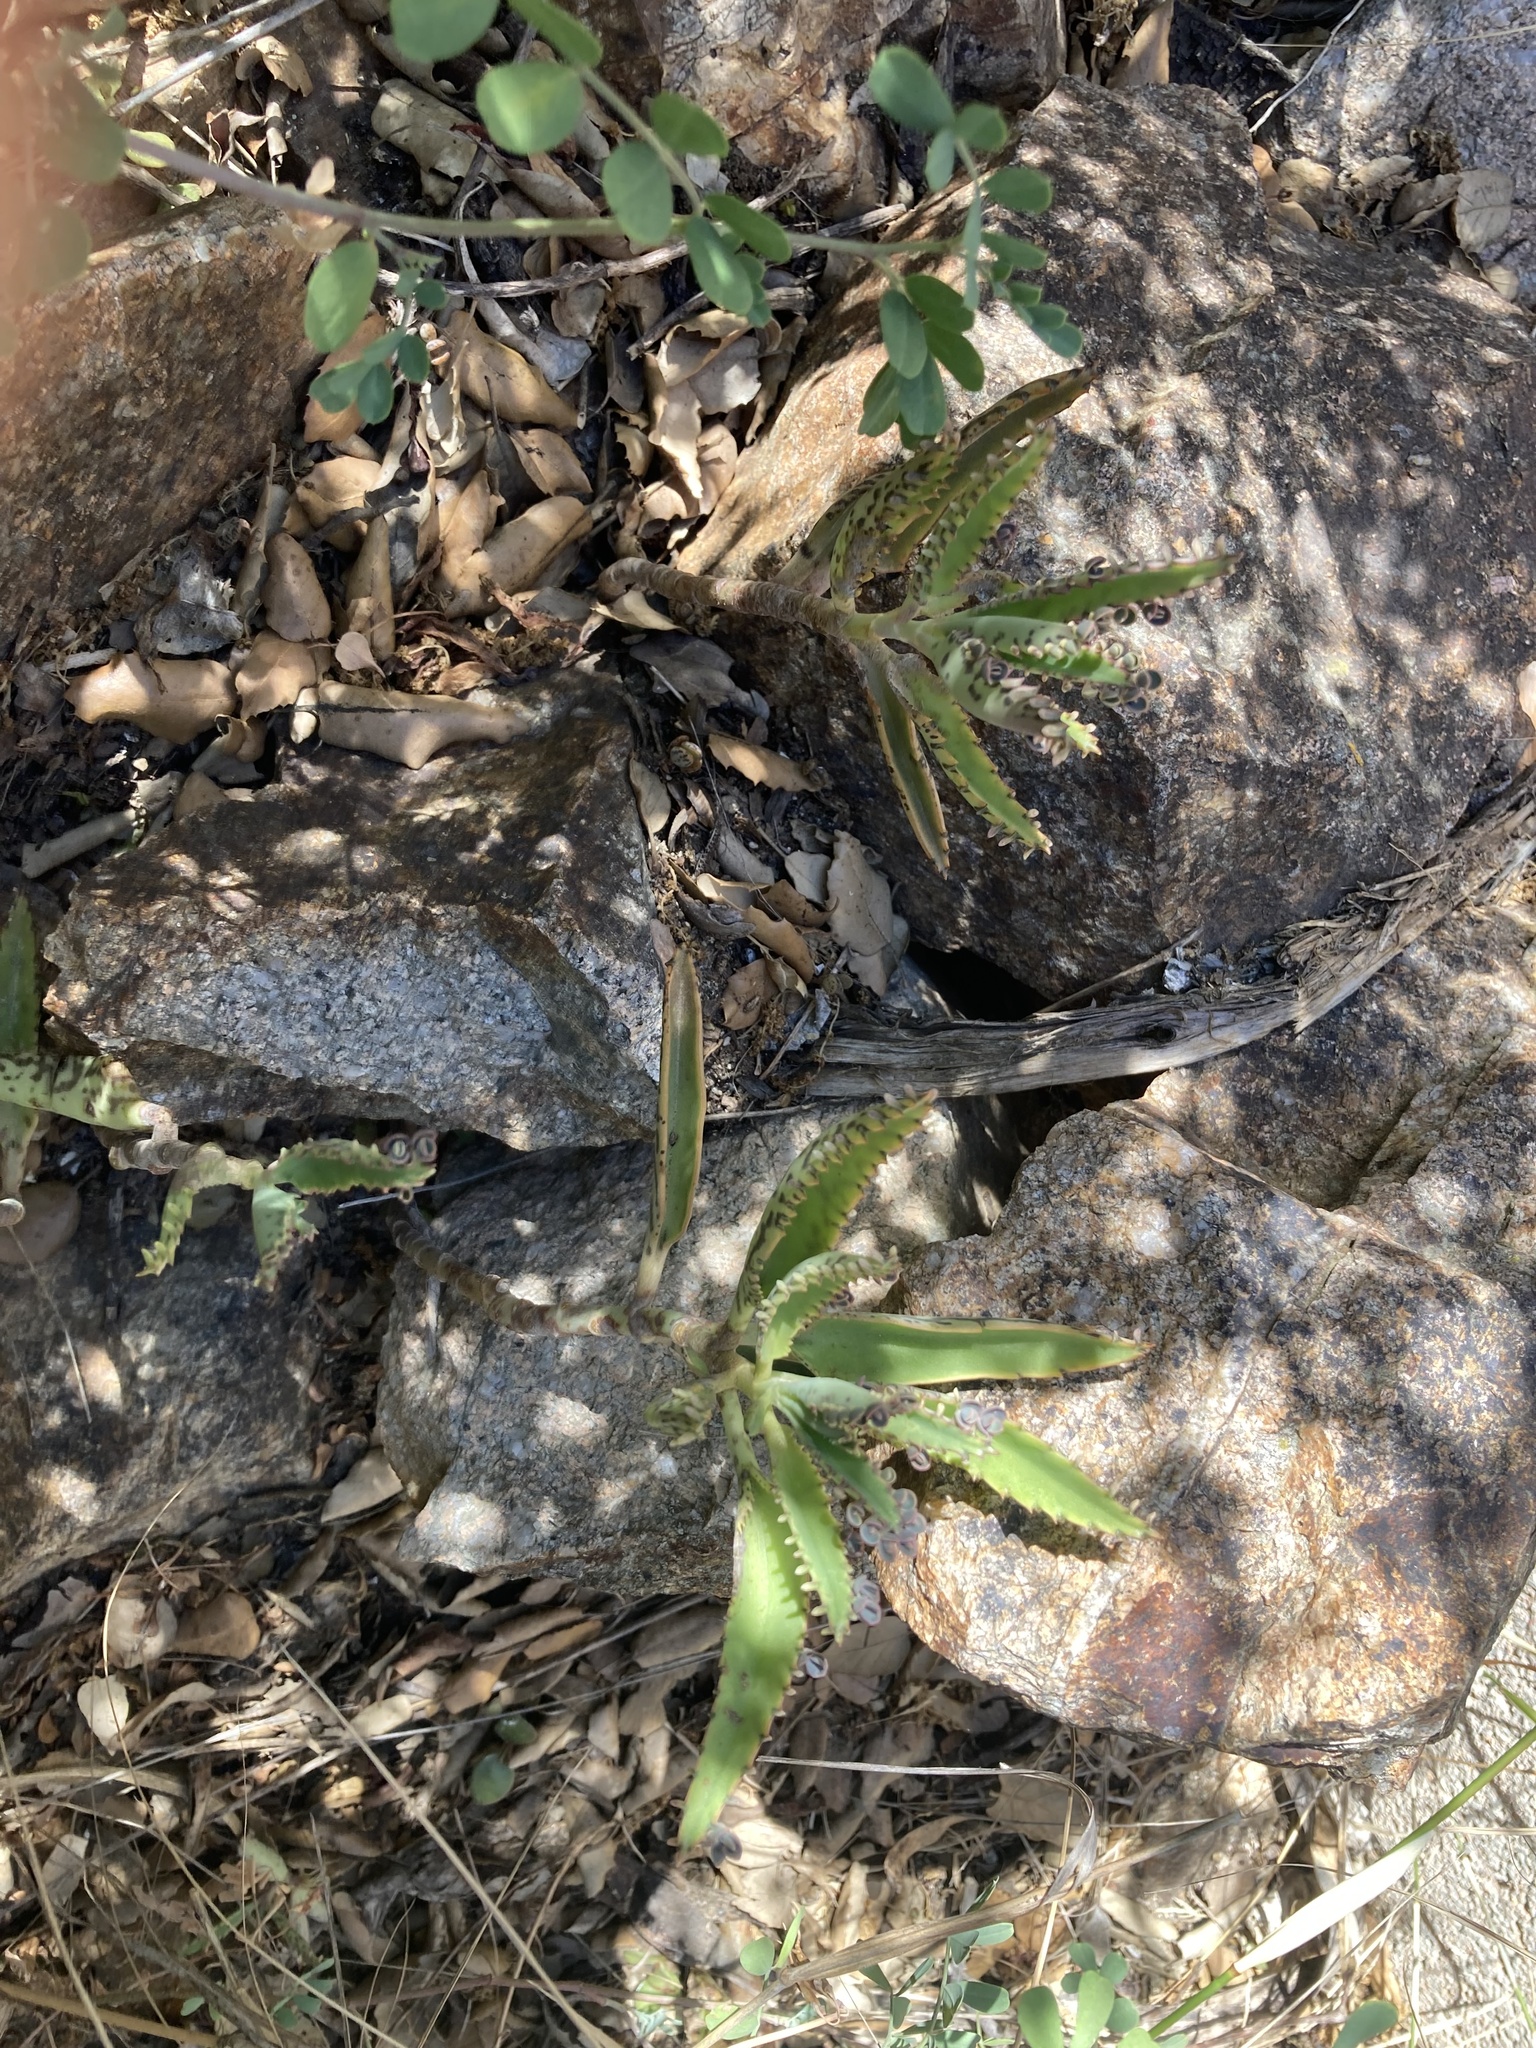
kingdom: Plantae
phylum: Tracheophyta
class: Magnoliopsida
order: Saxifragales
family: Crassulaceae
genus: Kalanchoe
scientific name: Kalanchoe houghtonii
